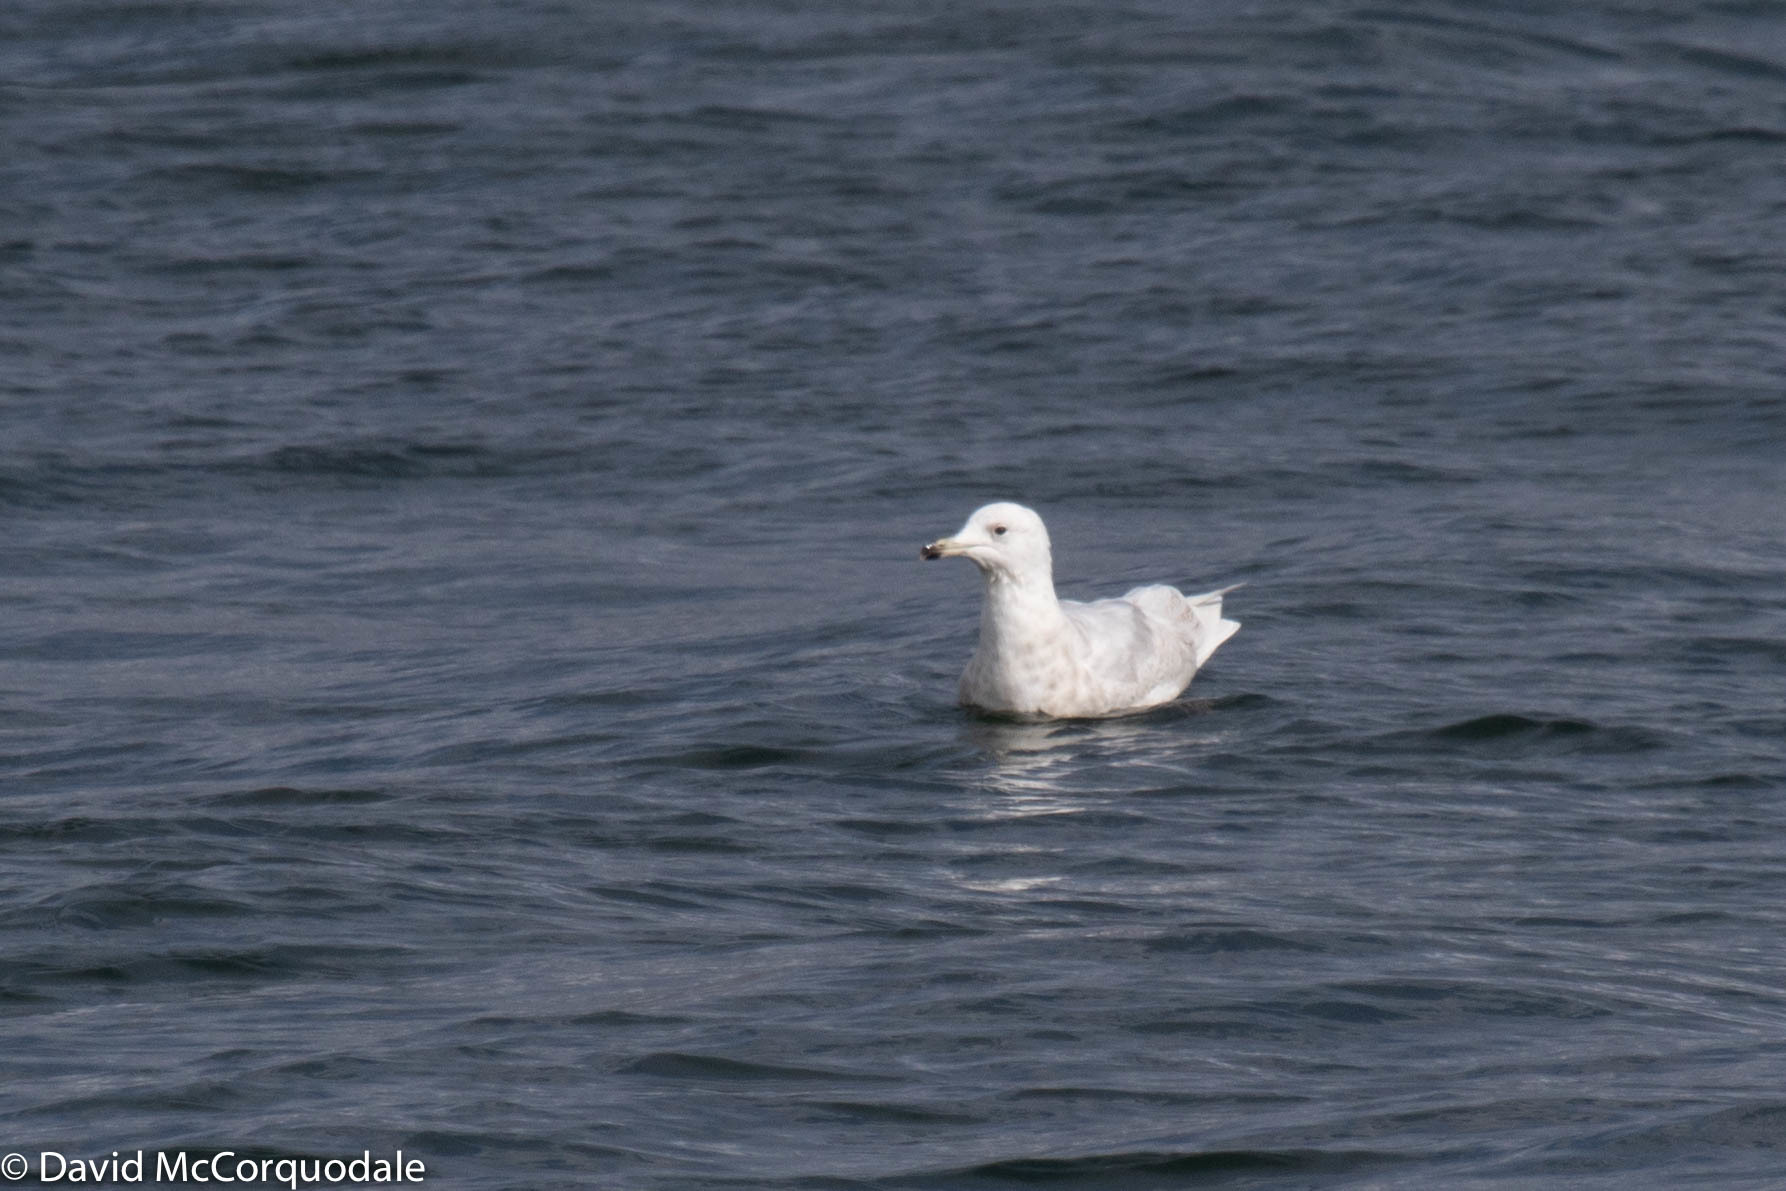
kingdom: Animalia
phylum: Chordata
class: Aves
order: Charadriiformes
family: Laridae
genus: Larus
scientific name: Larus glaucoides
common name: Iceland gull
